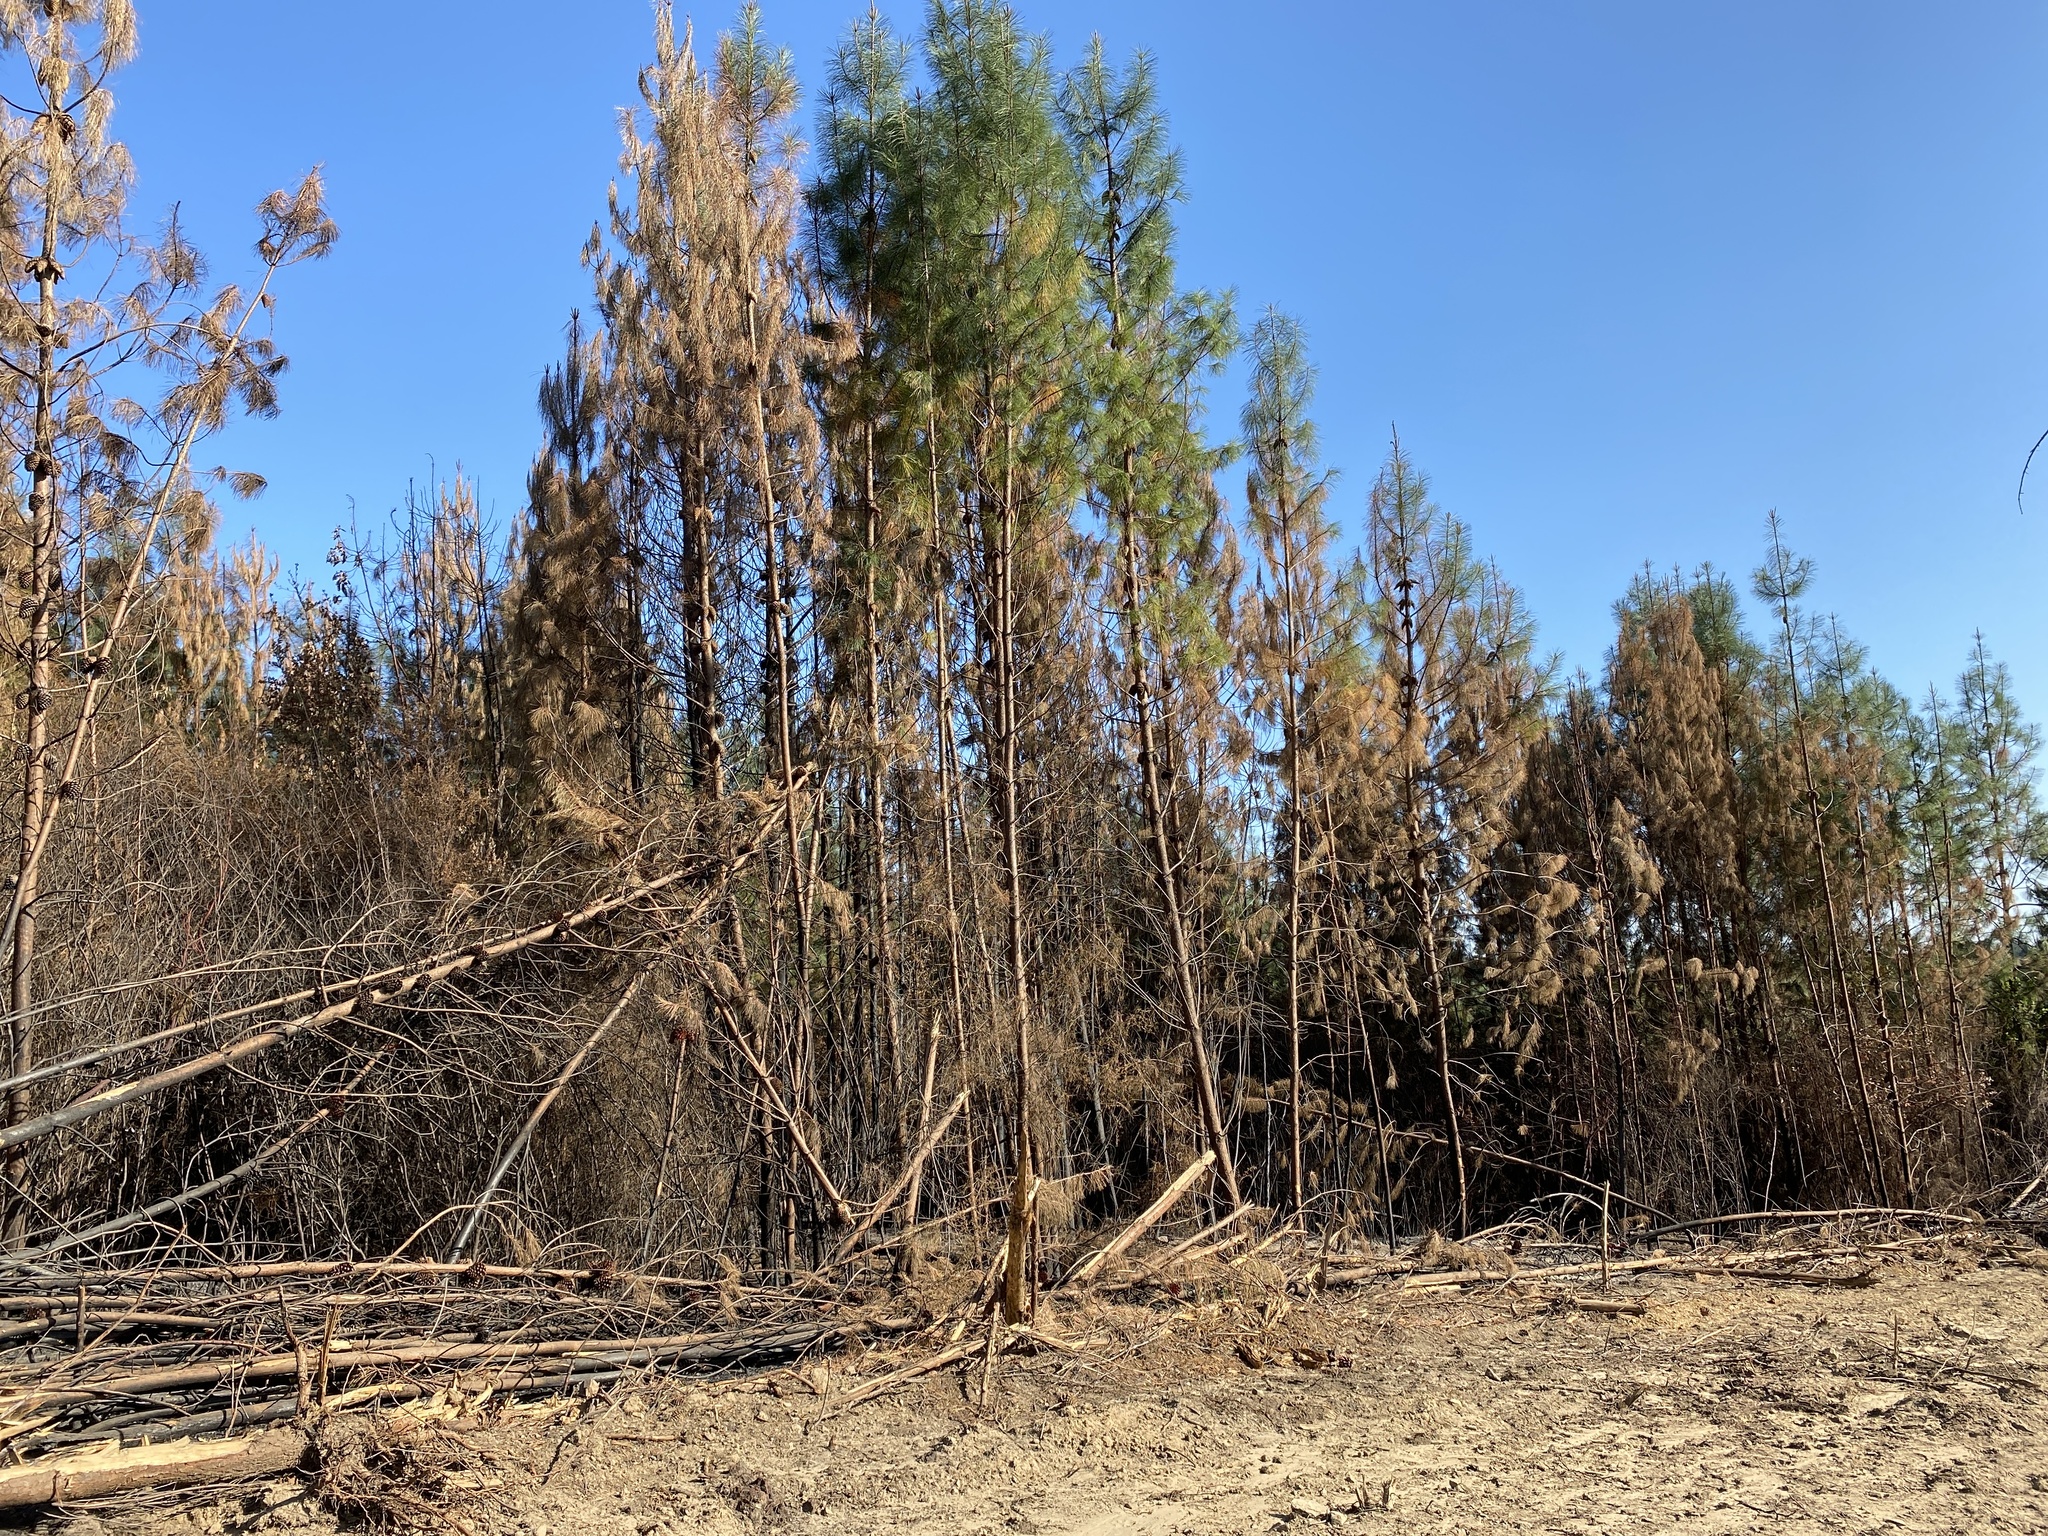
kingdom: Plantae
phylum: Tracheophyta
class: Pinopsida
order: Pinales
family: Pinaceae
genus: Pinus
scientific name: Pinus attenuata
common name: Knobcone pine
